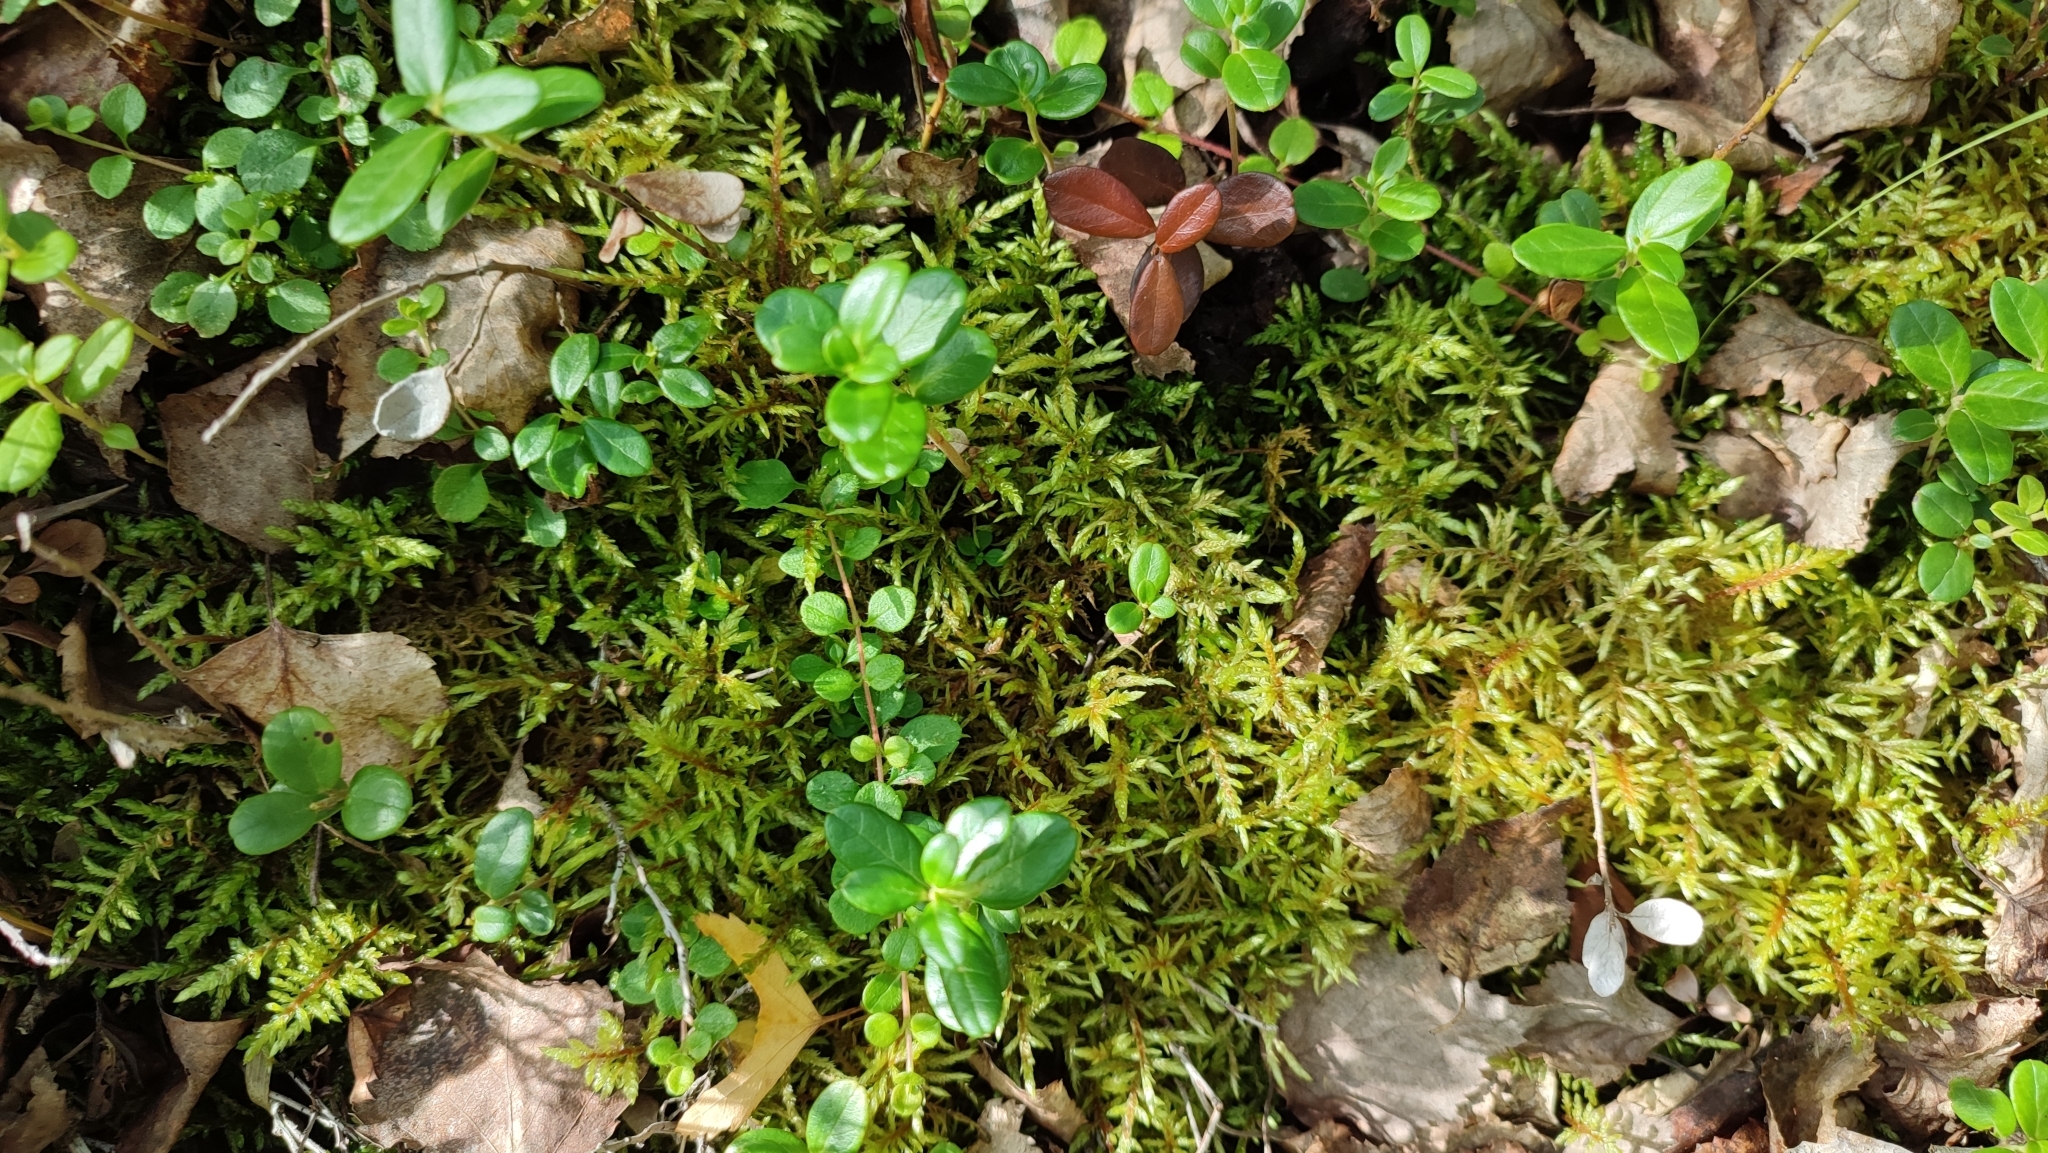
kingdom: Plantae
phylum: Bryophyta
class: Bryopsida
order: Hypnales
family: Hylocomiaceae
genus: Hylocomium
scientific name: Hylocomium splendens
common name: Stairstep moss
